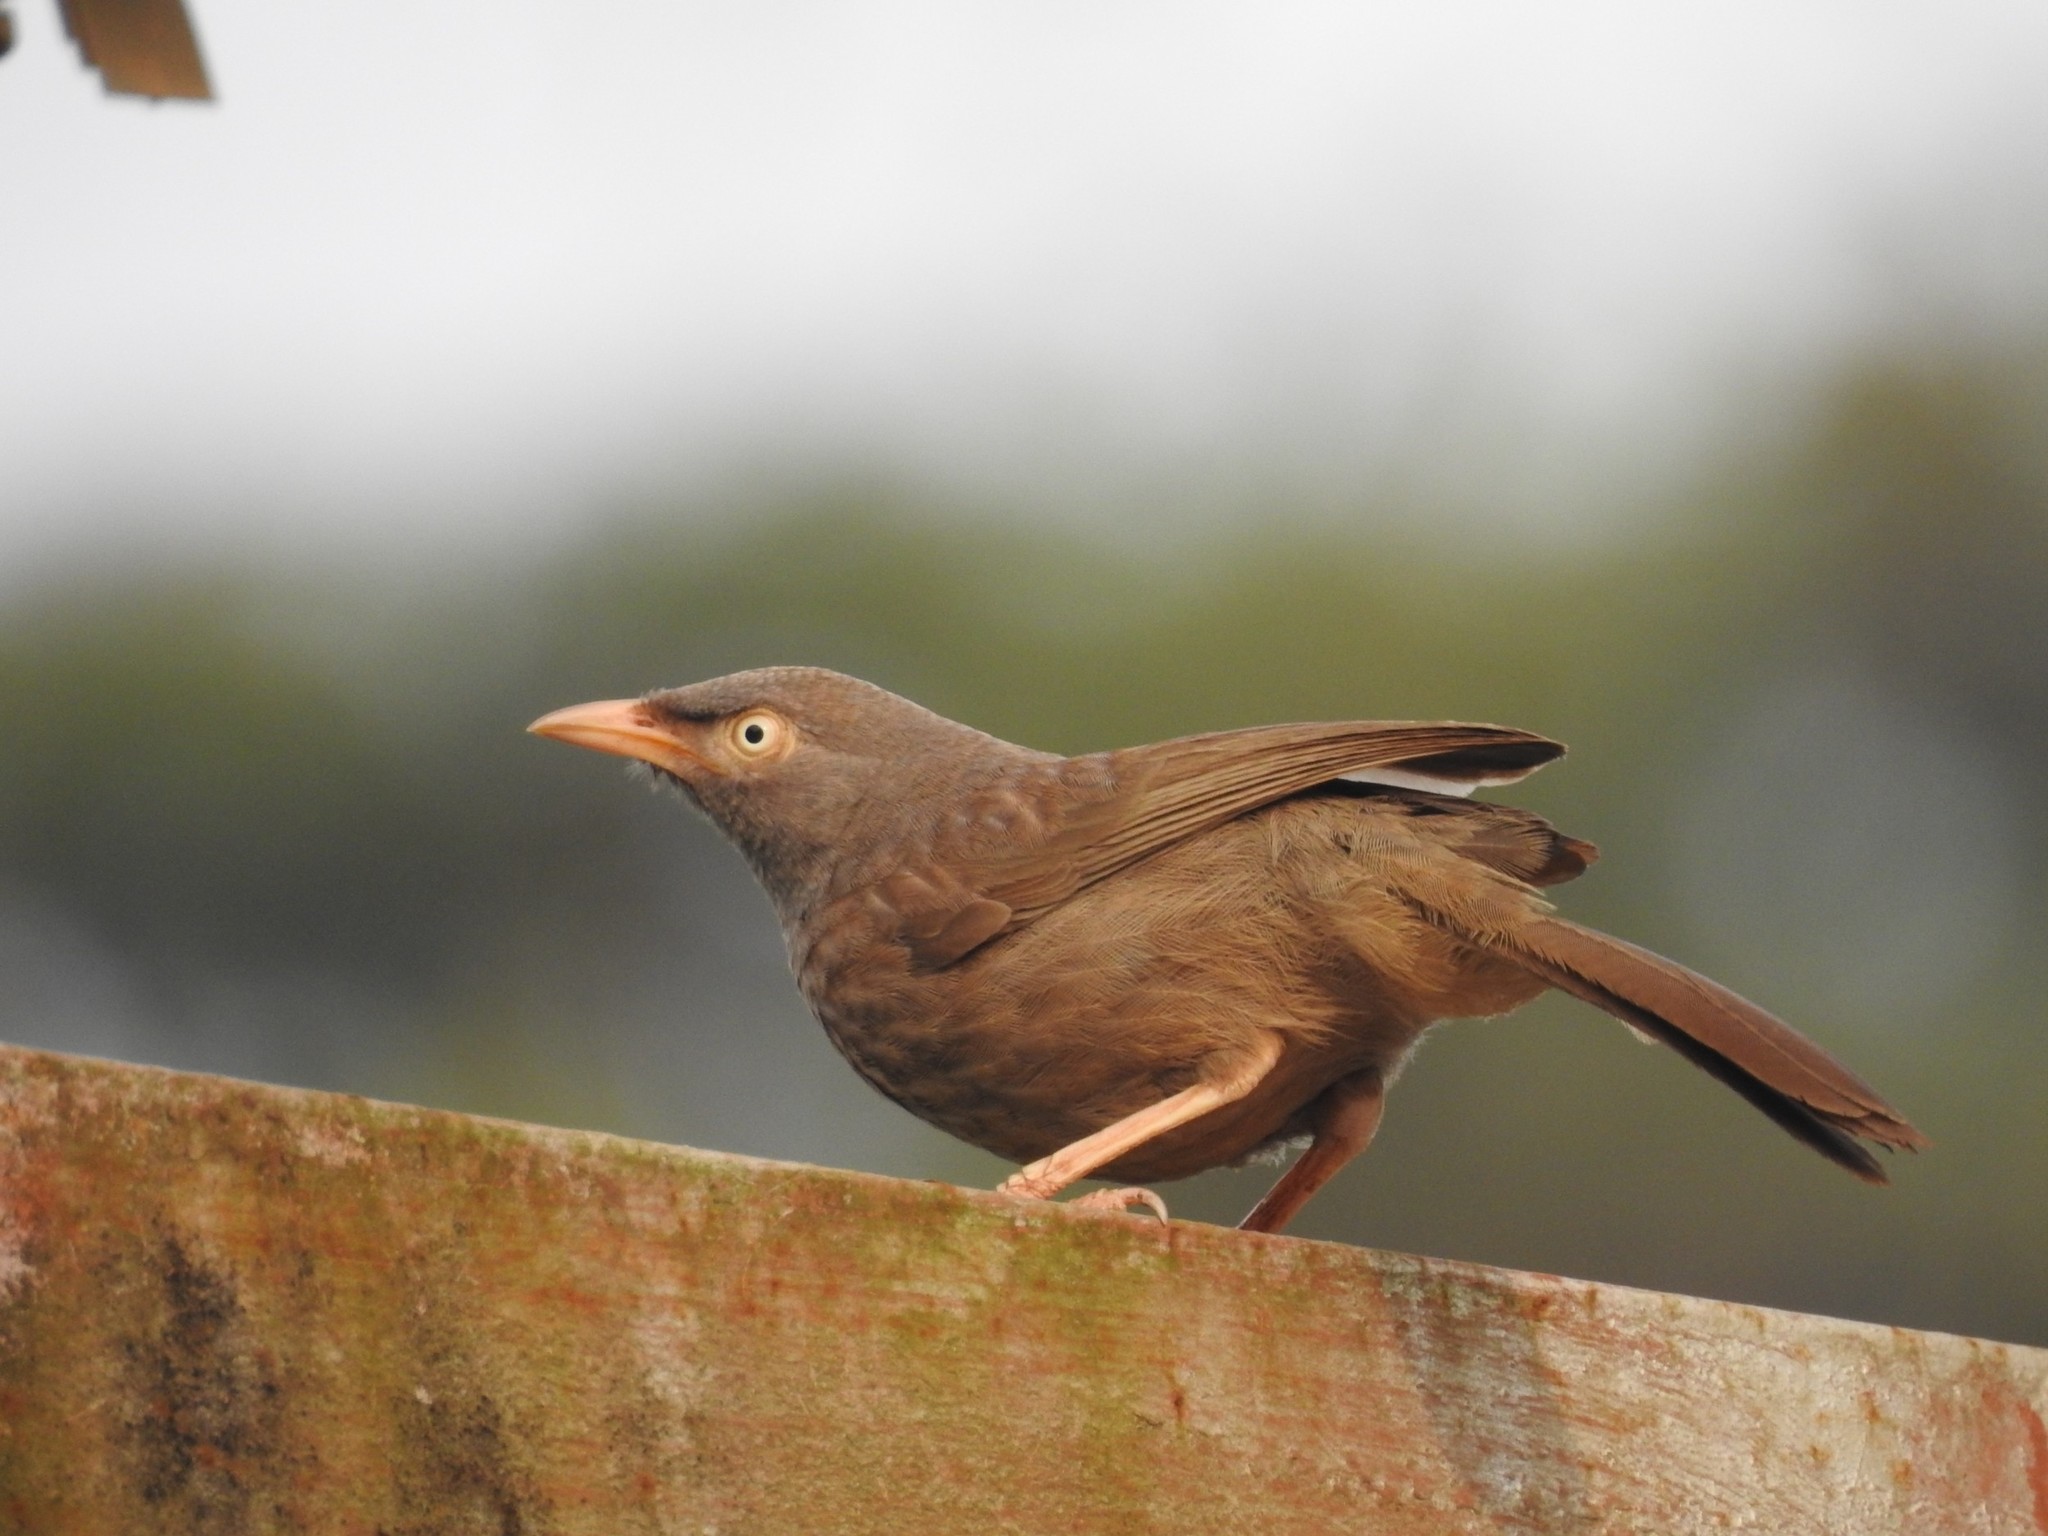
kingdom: Animalia
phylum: Chordata
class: Aves
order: Passeriformes
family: Leiothrichidae
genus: Turdoides
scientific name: Turdoides striata
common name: Jungle babbler
